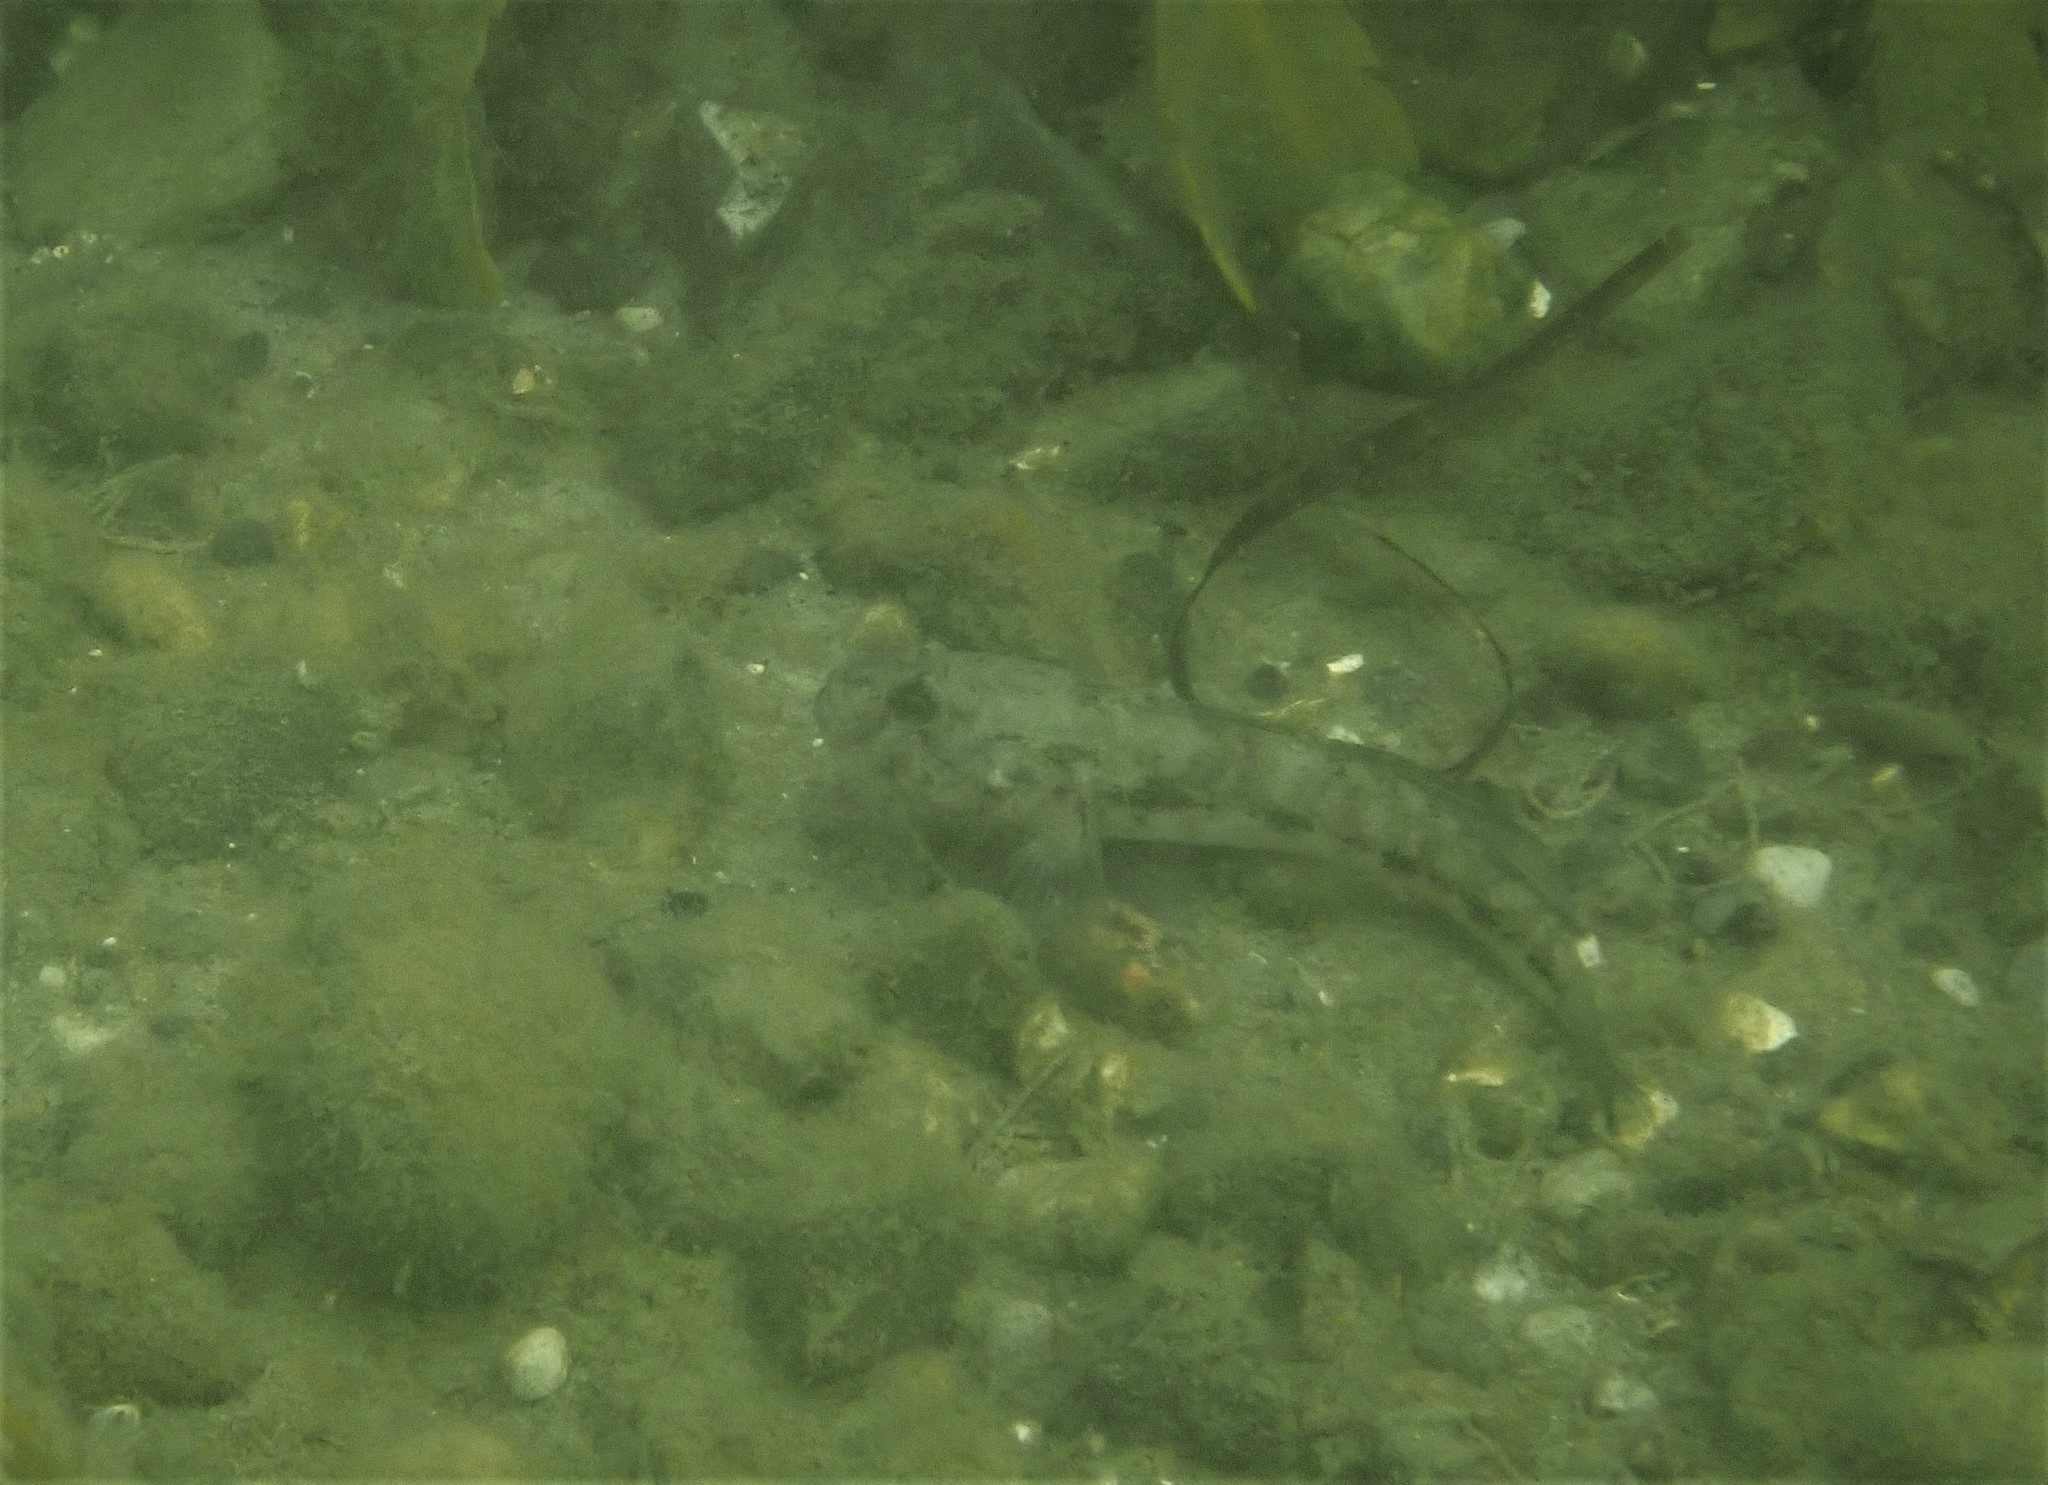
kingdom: Animalia
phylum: Chordata
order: Perciformes
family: Gobiidae
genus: Gobius
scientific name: Gobius niger
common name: Black goby
